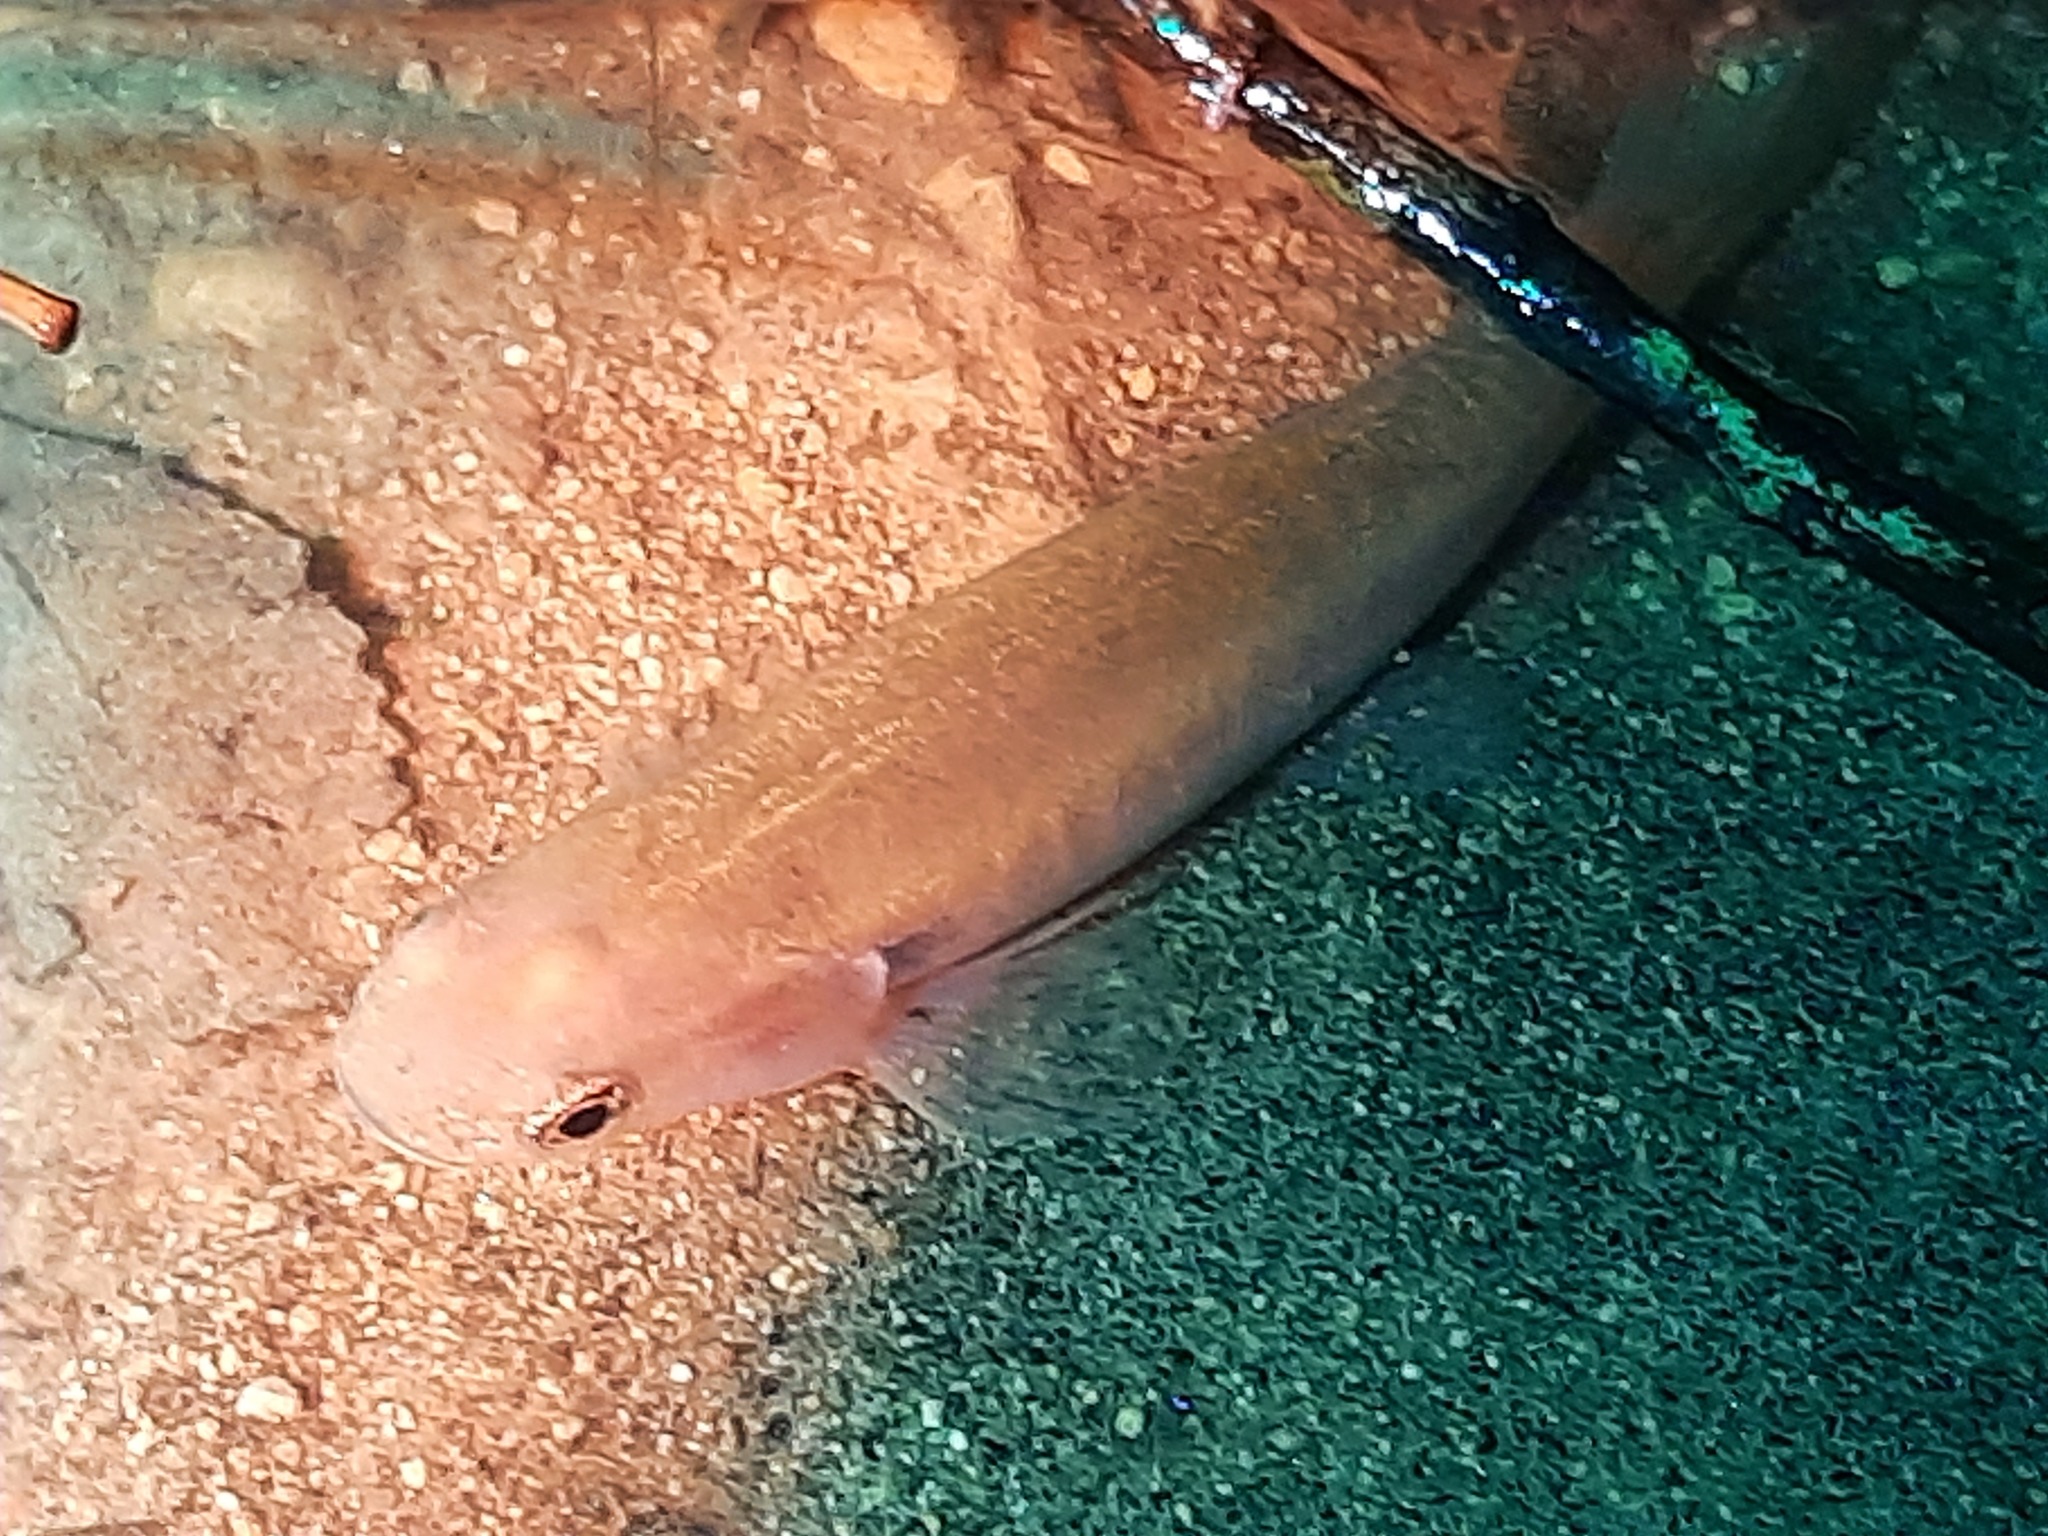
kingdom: Animalia
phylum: Chordata
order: Osmeriformes
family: Galaxiidae
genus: Galaxias
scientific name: Galaxias fasciatus
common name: Banded kokopu
